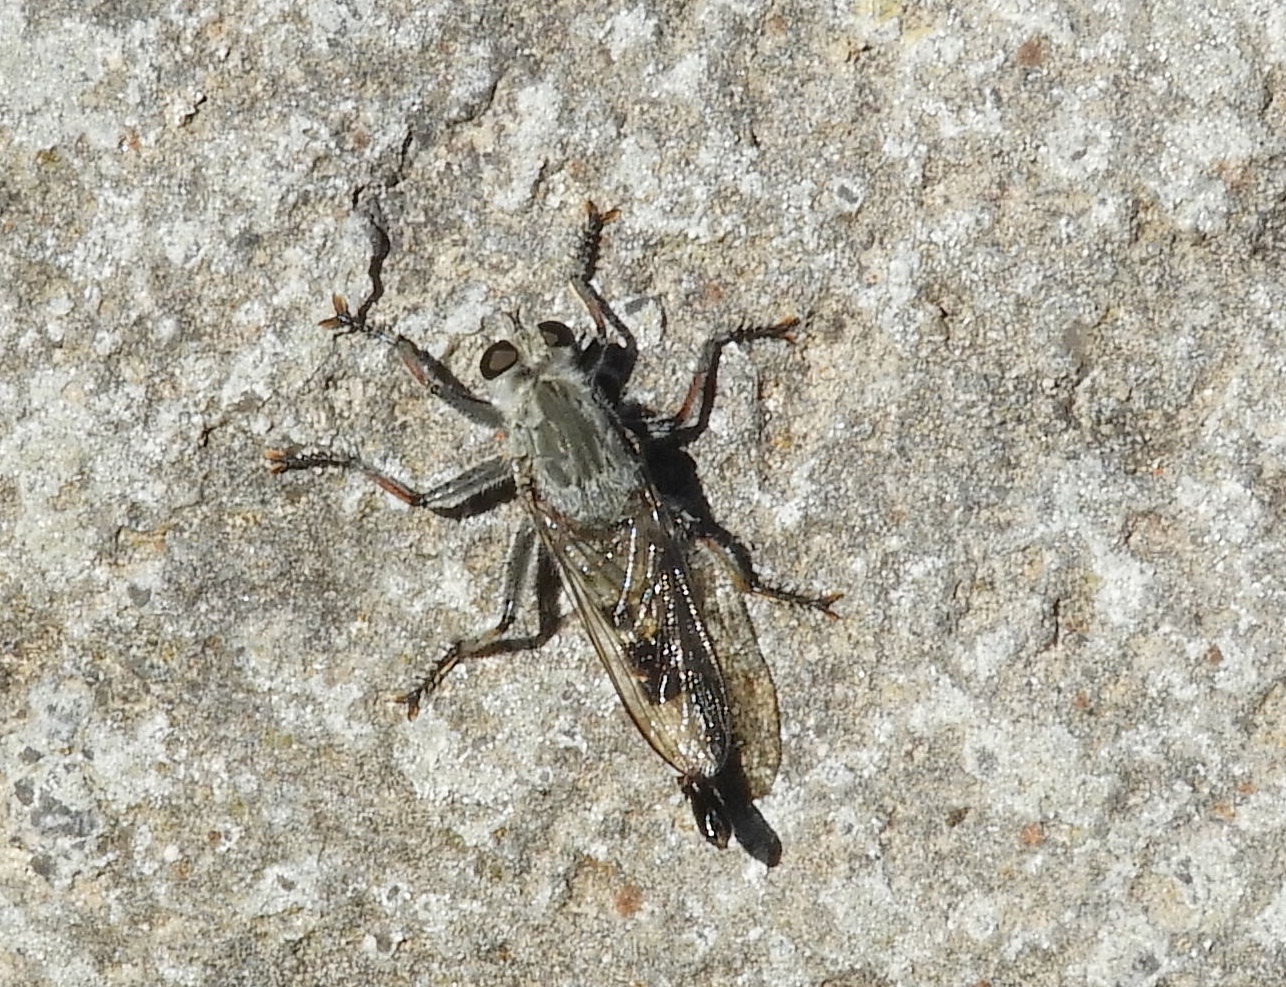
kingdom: Animalia
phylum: Arthropoda
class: Insecta
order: Diptera
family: Asilidae
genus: Efferia
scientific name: Efferia
